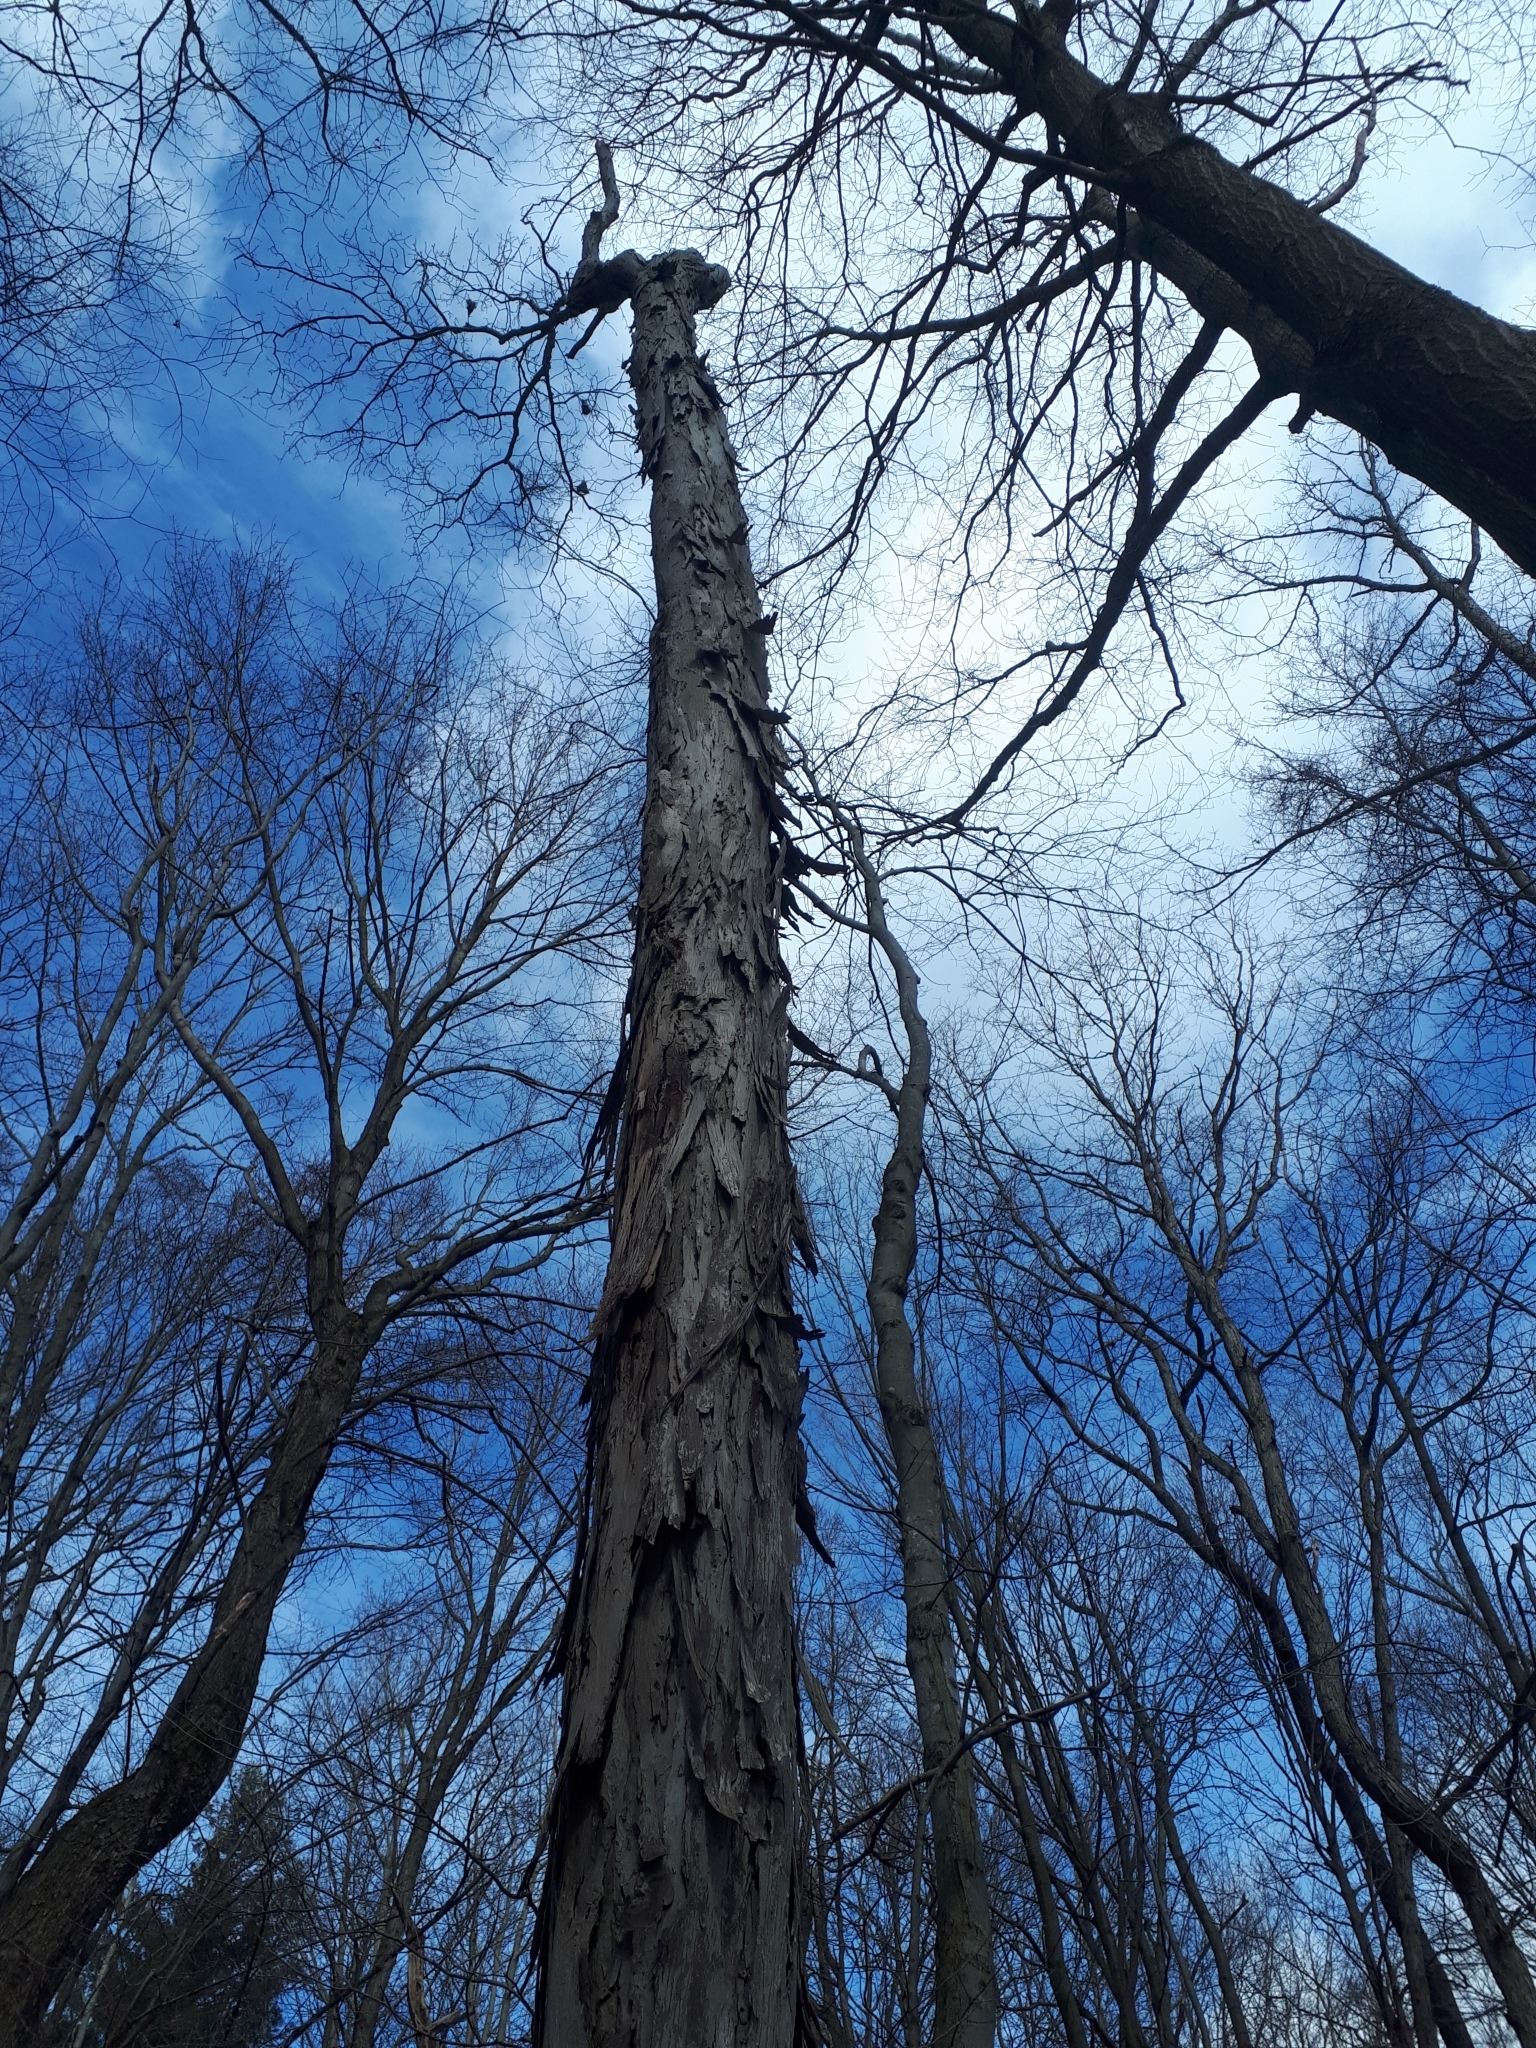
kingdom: Plantae
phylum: Tracheophyta
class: Magnoliopsida
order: Fagales
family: Juglandaceae
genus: Carya
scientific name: Carya ovata
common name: Shagbark hickory
